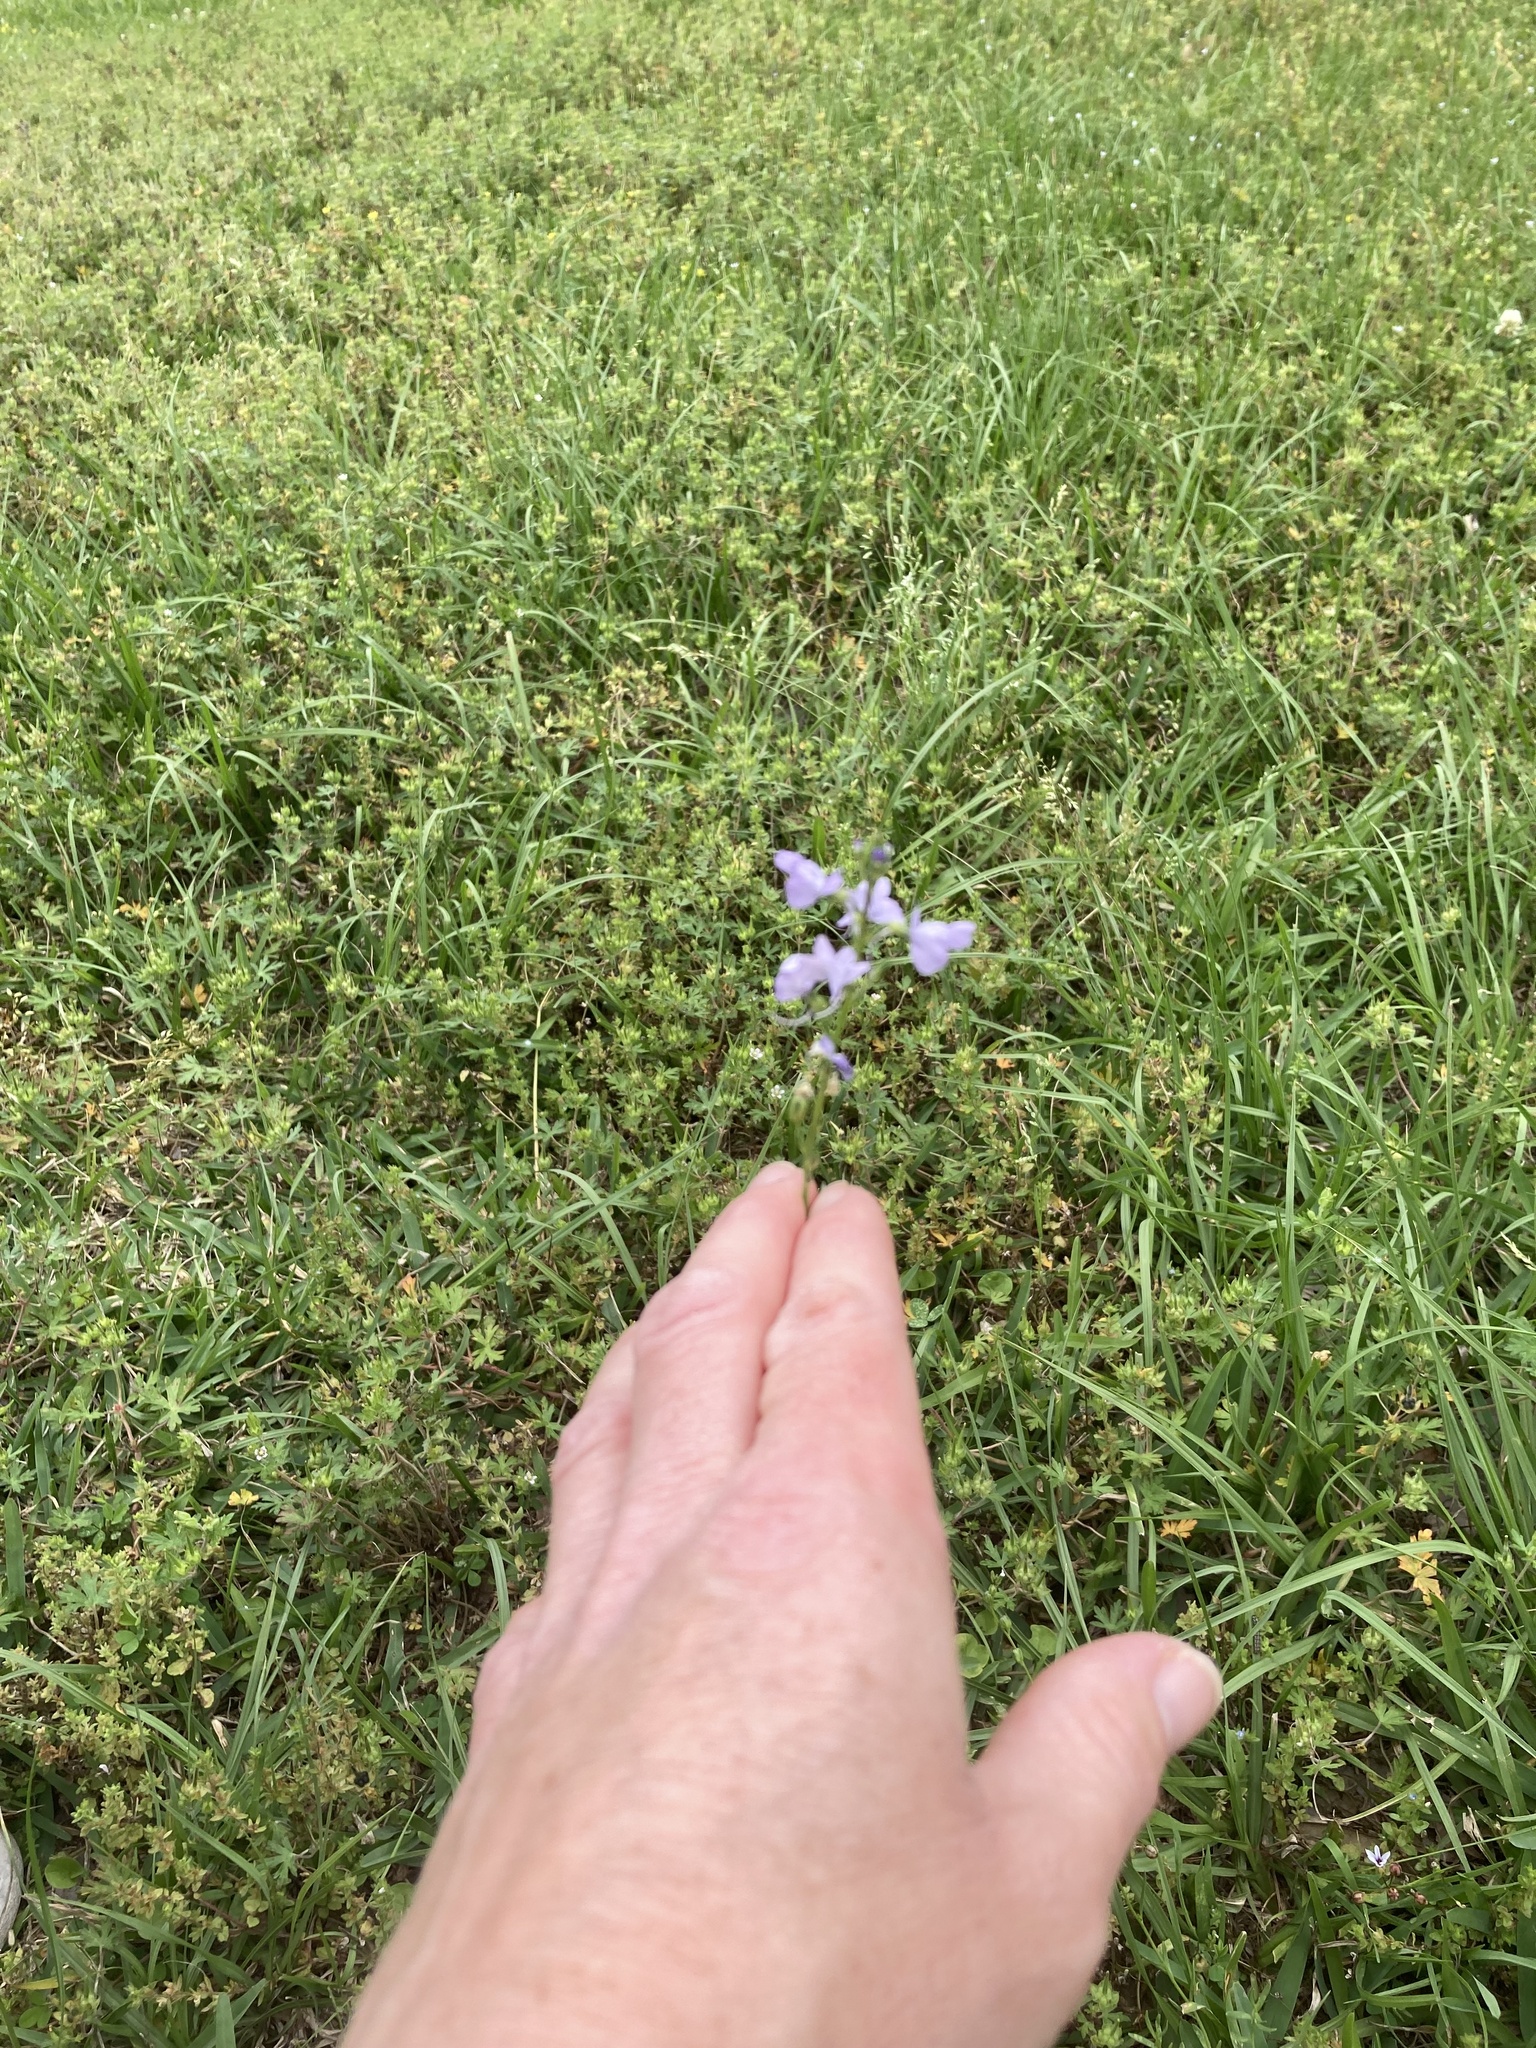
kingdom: Plantae
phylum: Tracheophyta
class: Magnoliopsida
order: Lamiales
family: Plantaginaceae
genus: Nuttallanthus
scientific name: Nuttallanthus texanus
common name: Texas toadflax
